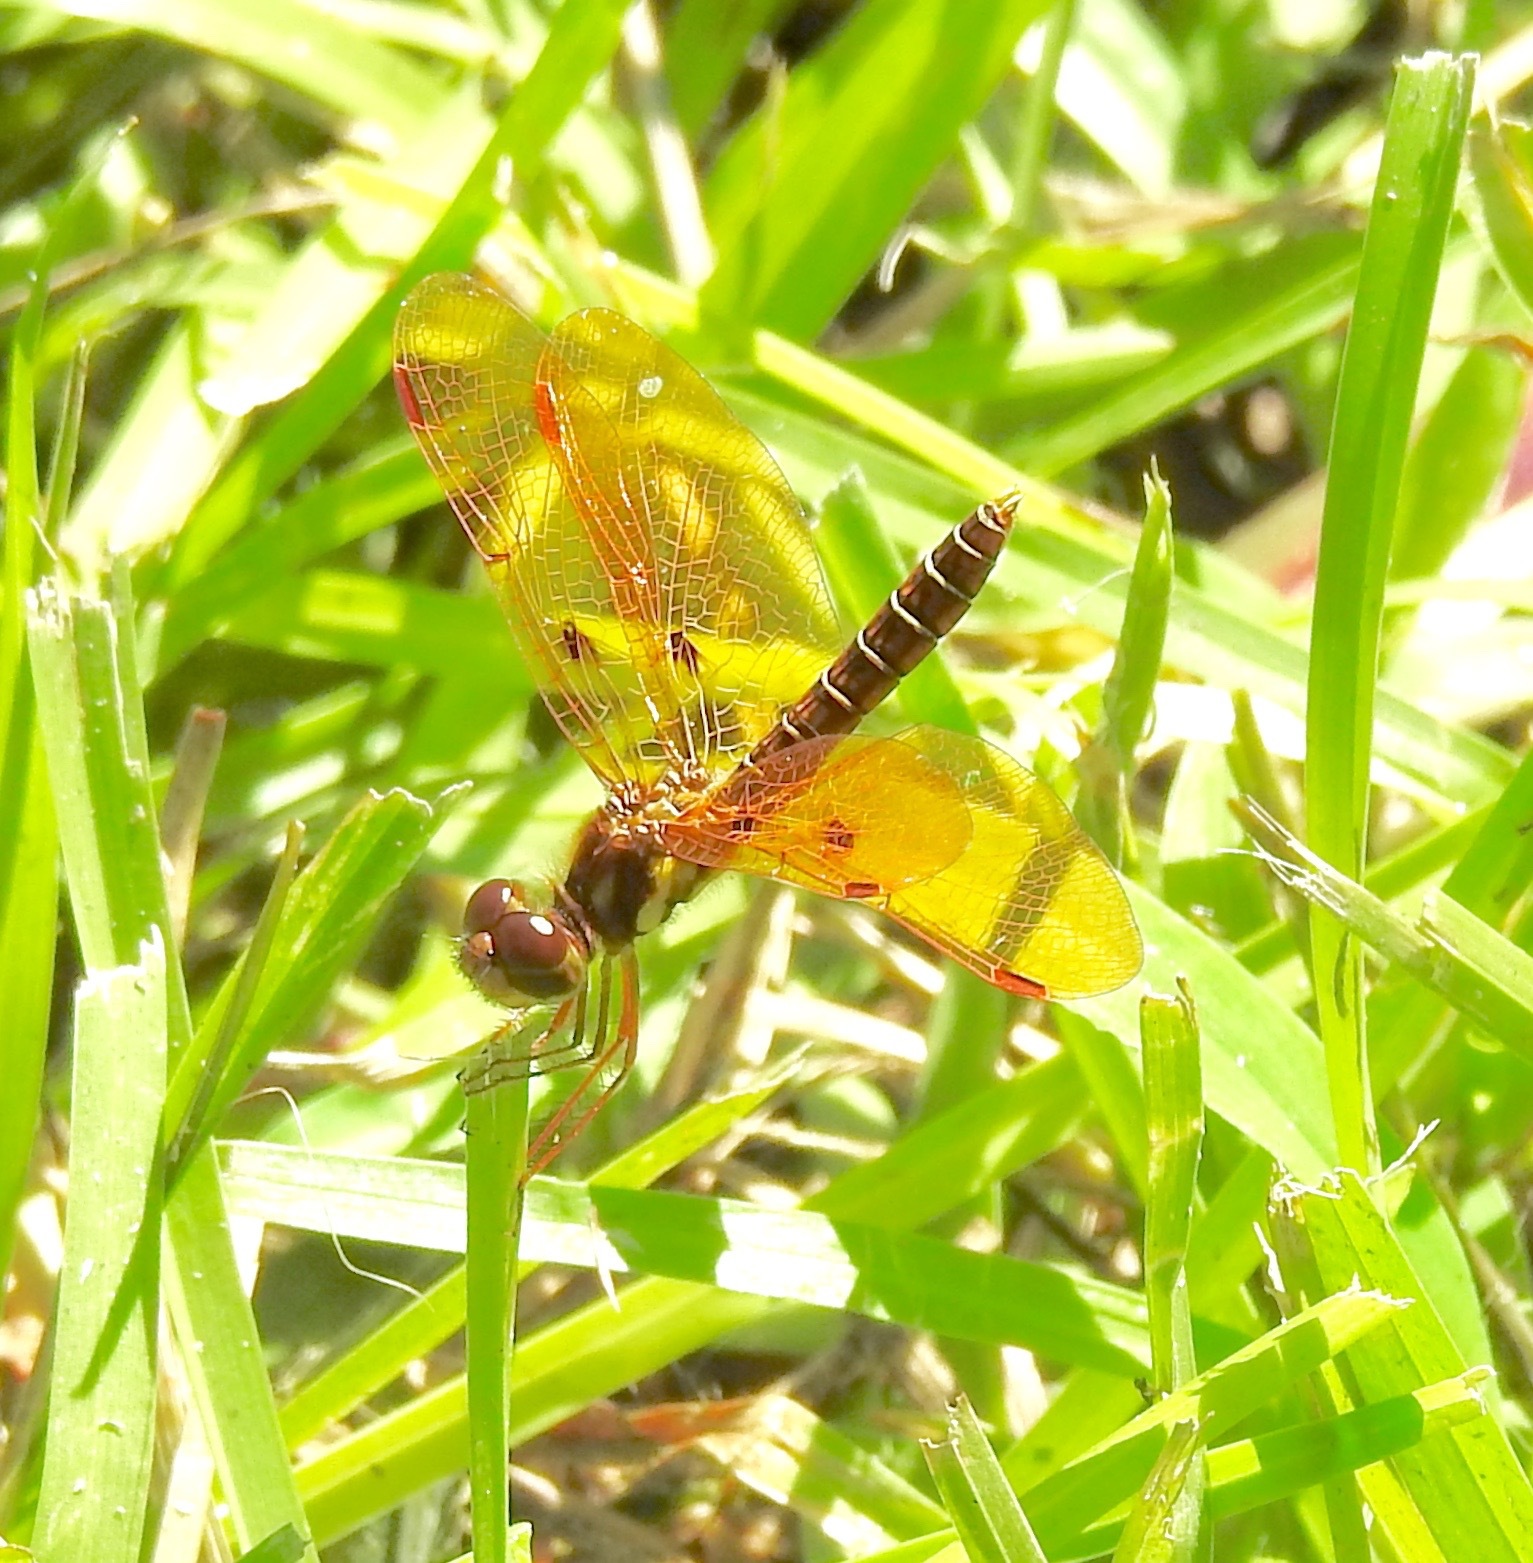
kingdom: Animalia
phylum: Arthropoda
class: Insecta
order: Odonata
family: Libellulidae
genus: Perithemis
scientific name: Perithemis tenera
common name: Eastern amberwing
